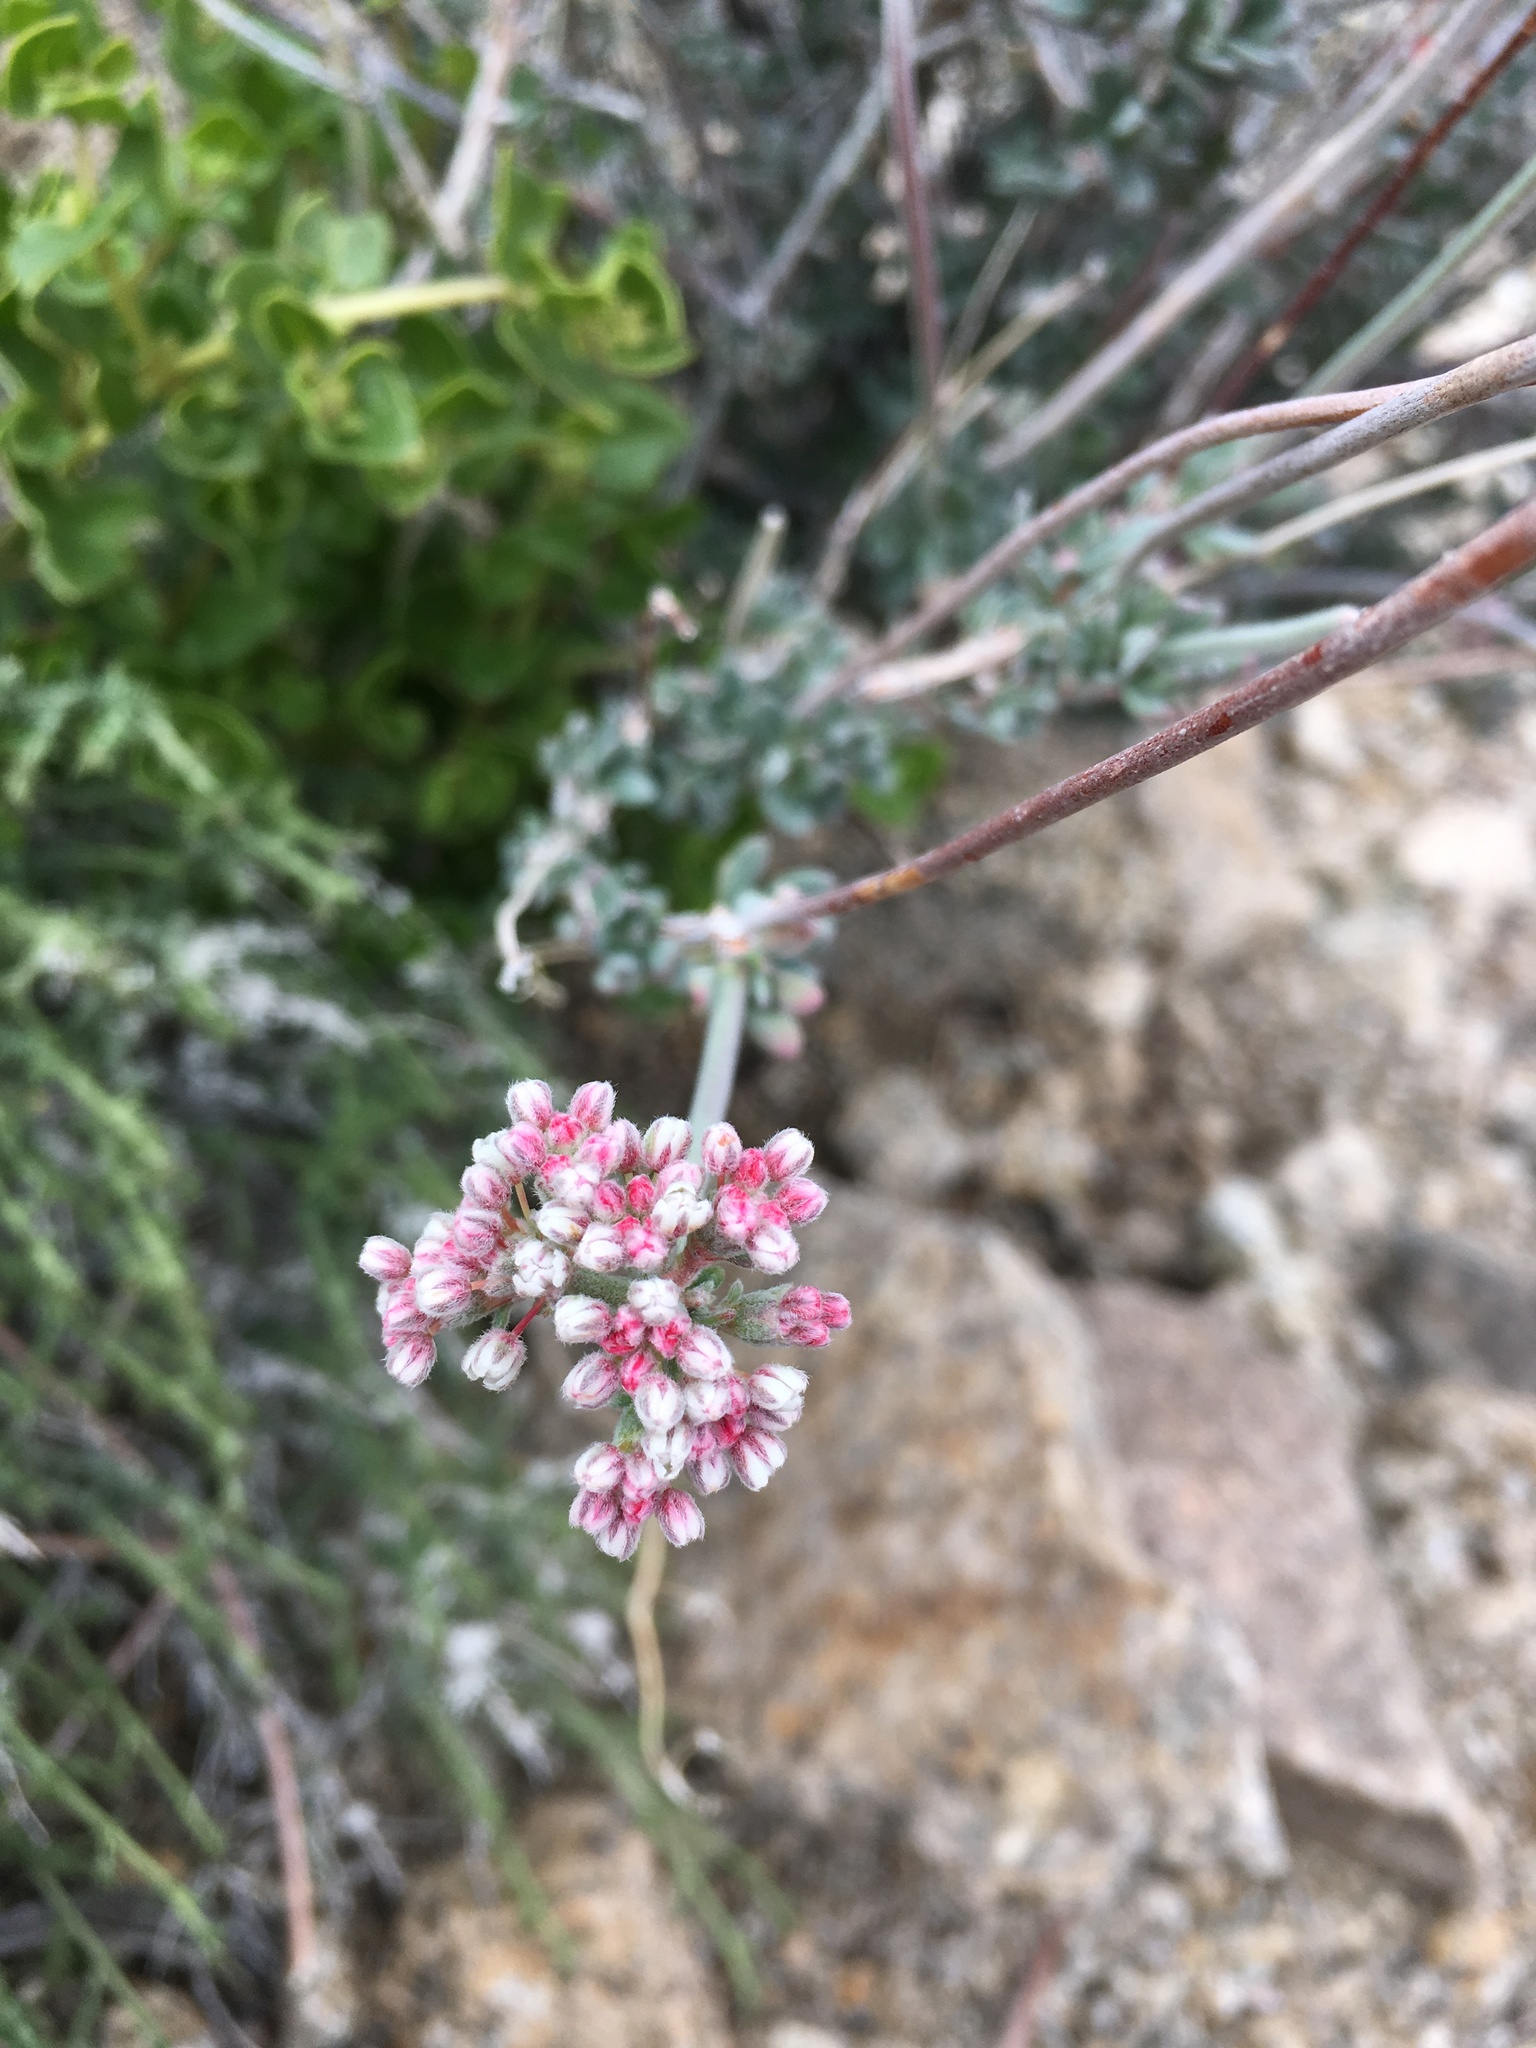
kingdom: Plantae
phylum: Tracheophyta
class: Magnoliopsida
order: Caryophyllales
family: Polygonaceae
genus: Eriogonum
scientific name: Eriogonum fasciculatum
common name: California wild buckwheat
